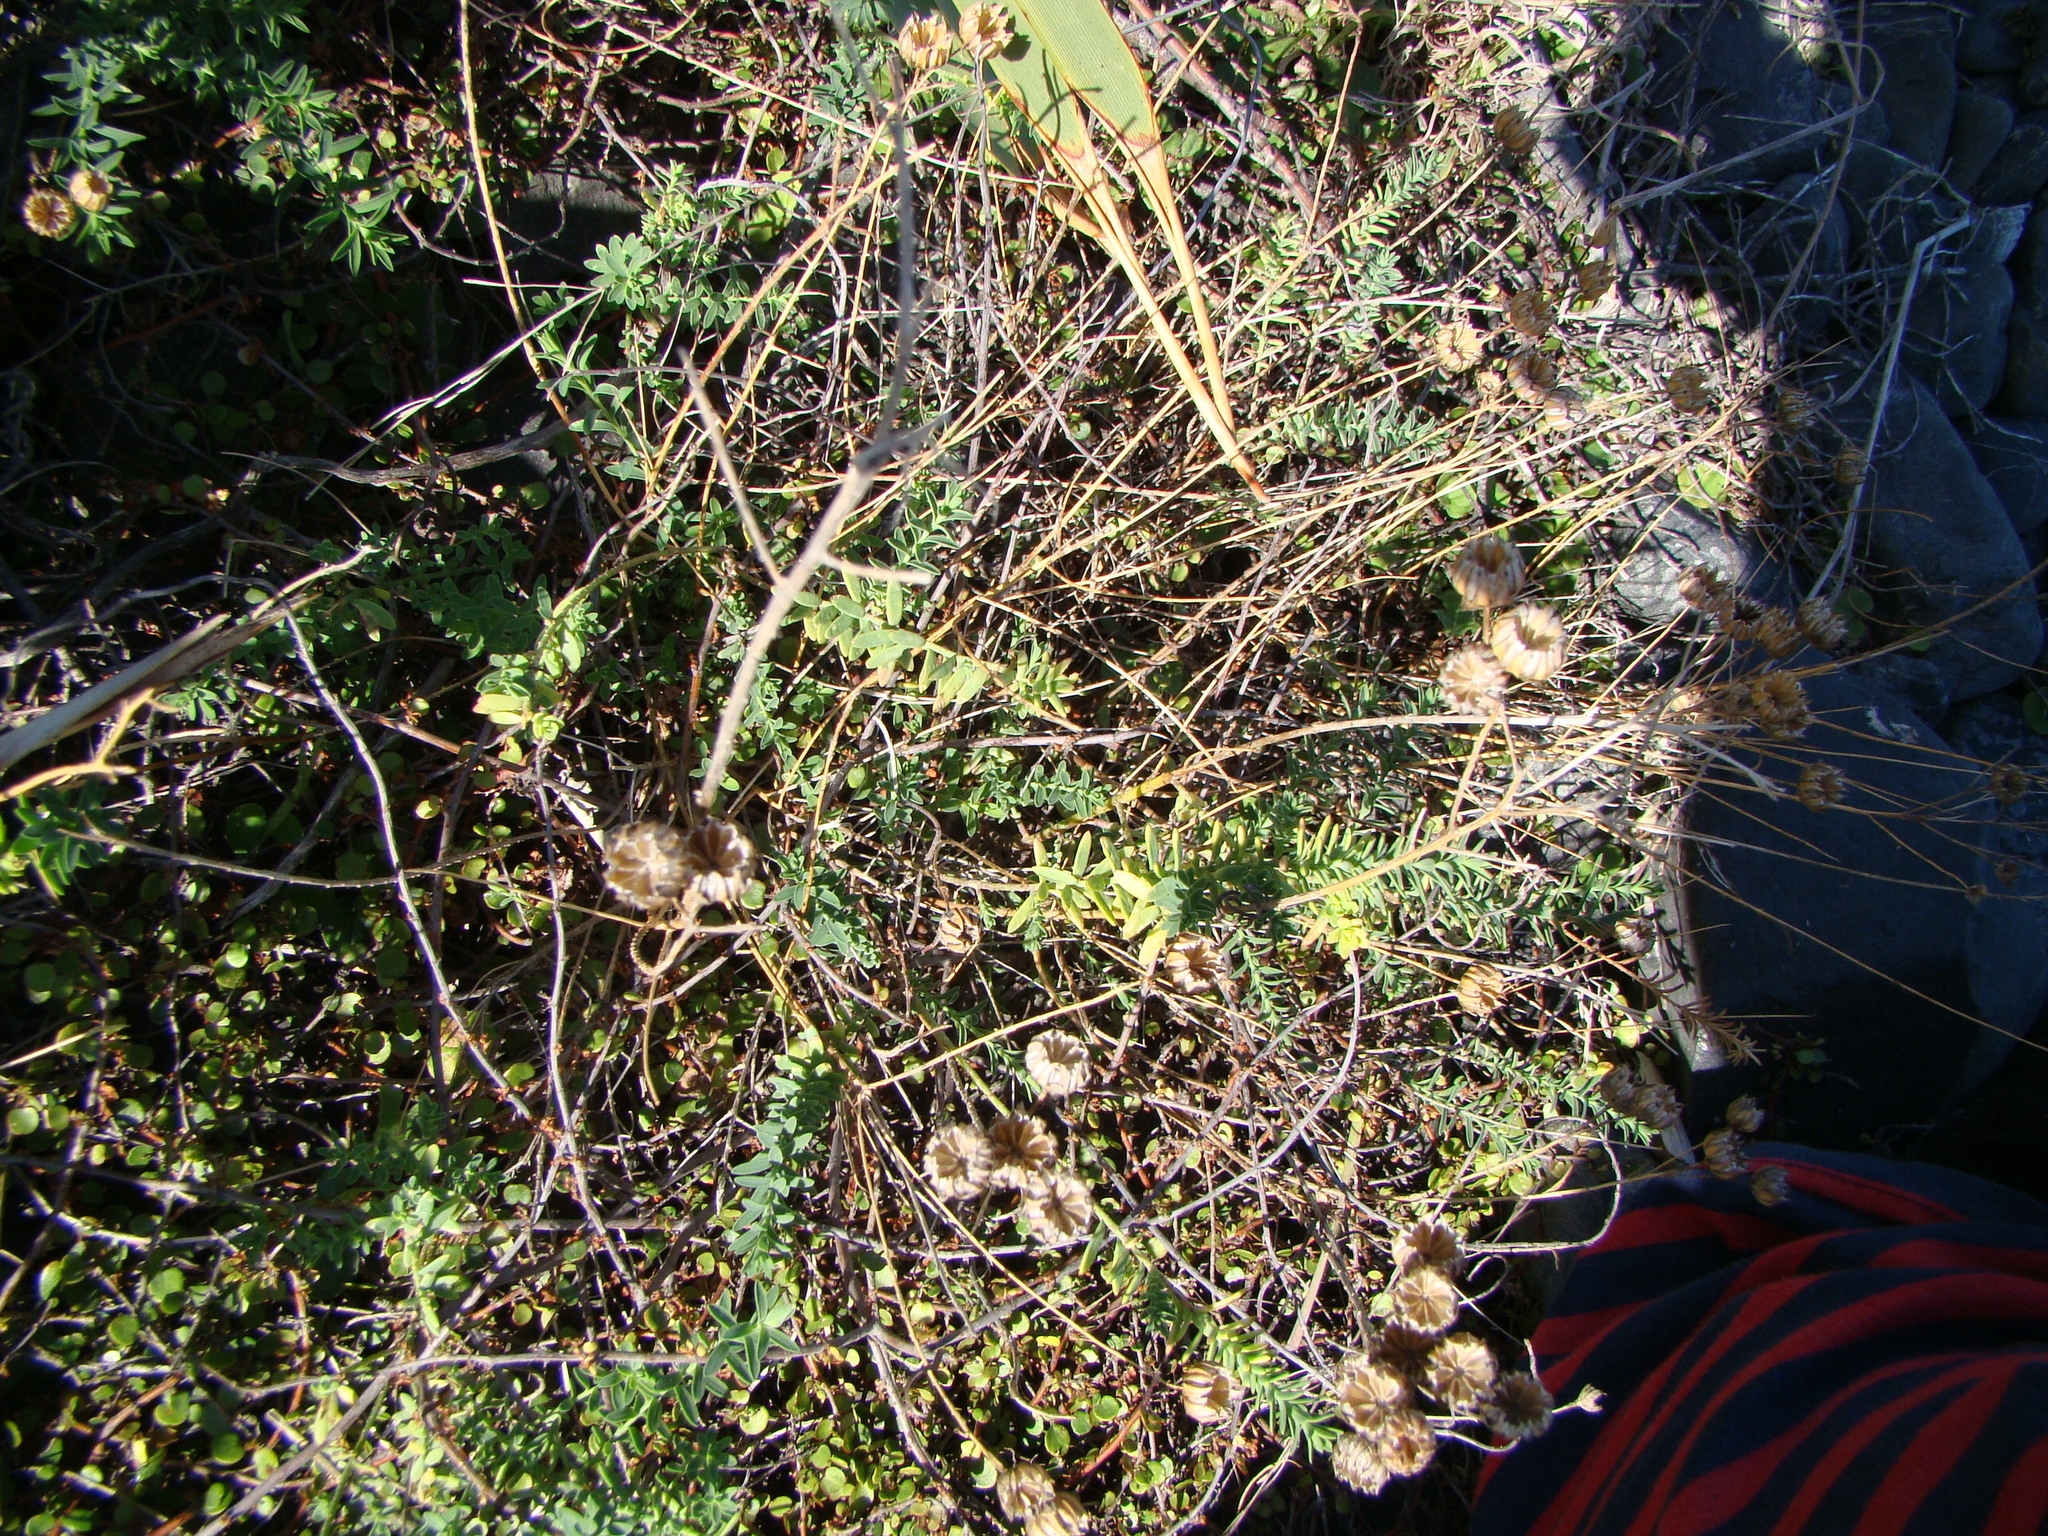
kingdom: Plantae
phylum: Tracheophyta
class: Magnoliopsida
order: Malpighiales
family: Linaceae
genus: Linum
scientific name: Linum monogynum
